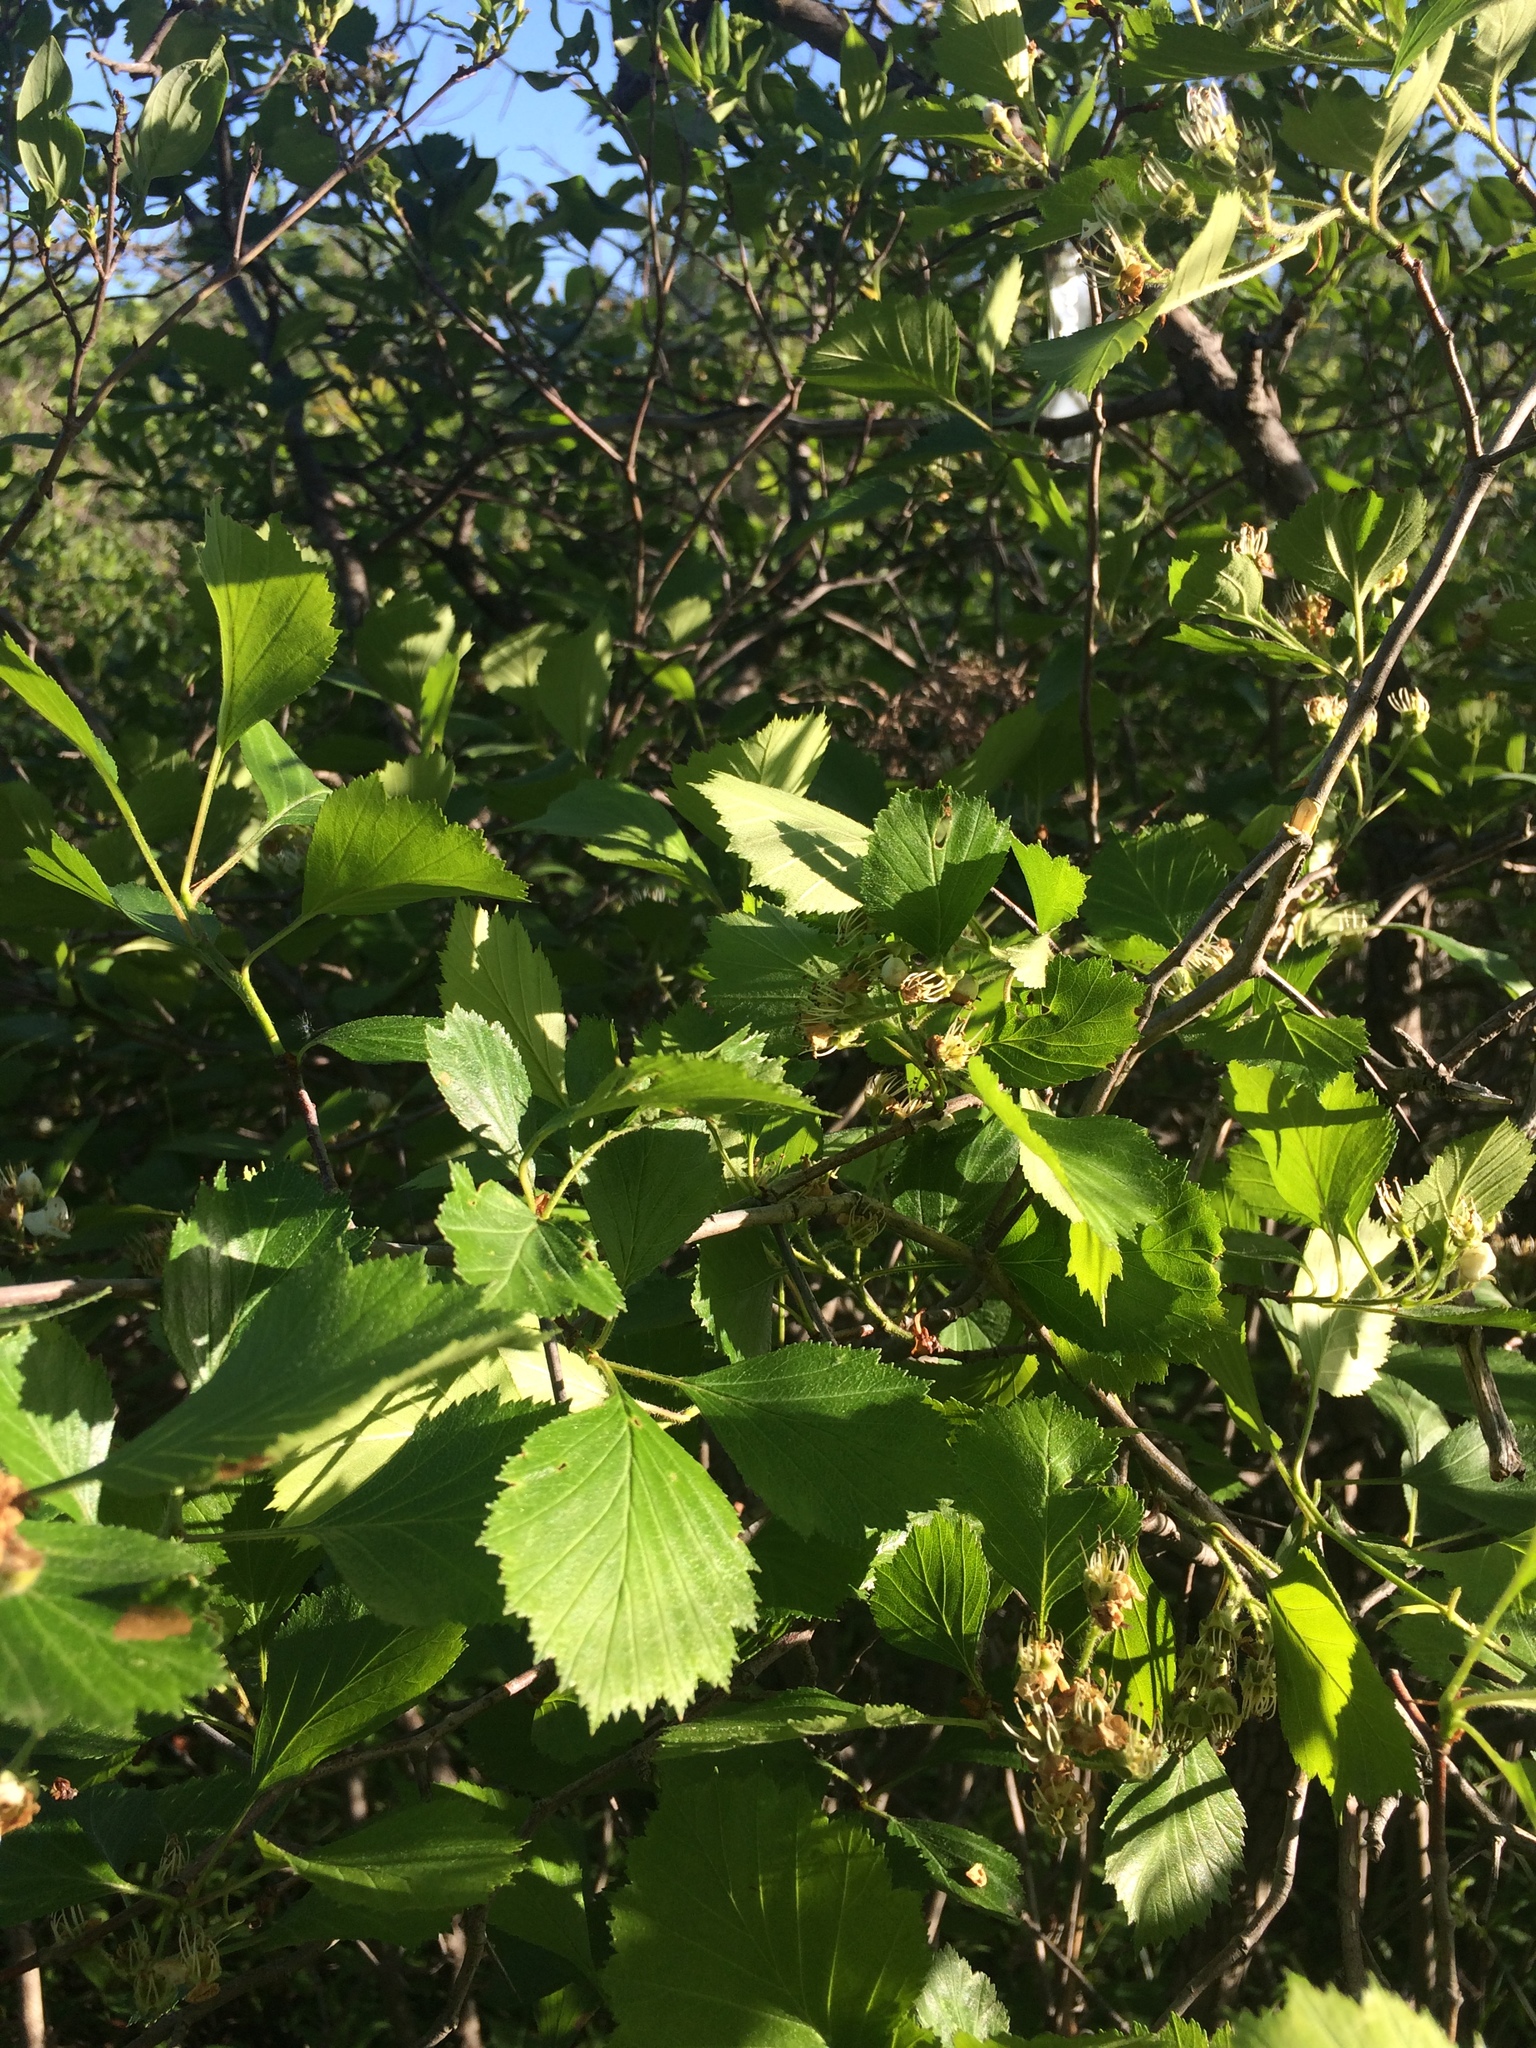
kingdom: Plantae
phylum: Tracheophyta
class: Magnoliopsida
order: Rosales
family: Rosaceae
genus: Crataegus
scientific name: Crataegus chrysocarpa
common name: Fire-berry hawthorn
